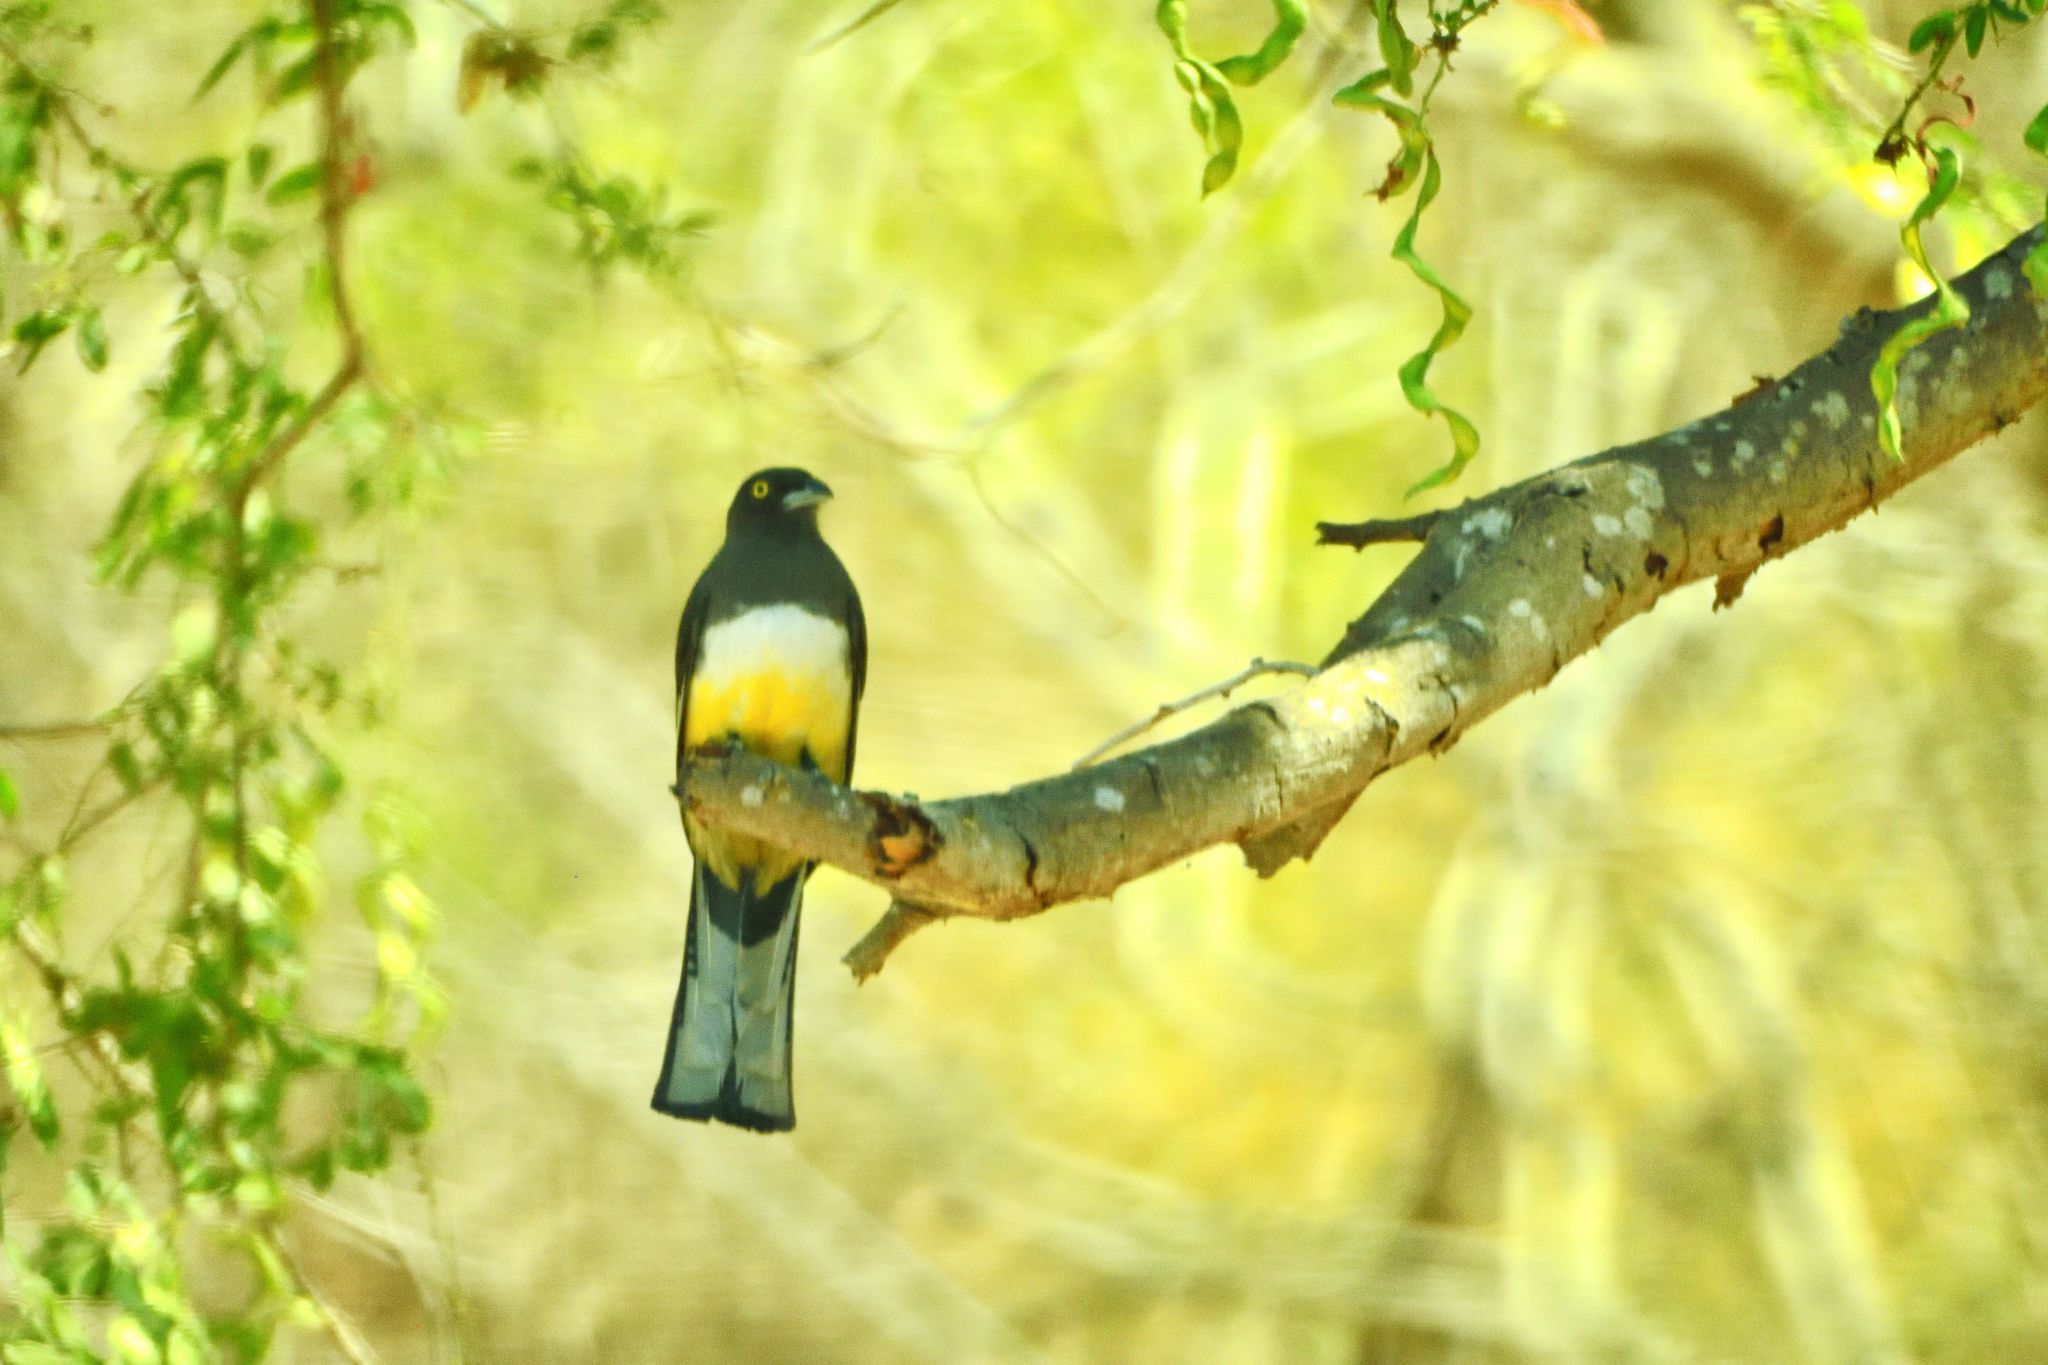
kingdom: Animalia
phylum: Chordata
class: Aves
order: Trogoniformes
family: Trogonidae
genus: Trogon
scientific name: Trogon citreolus
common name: Citreoline trogon
